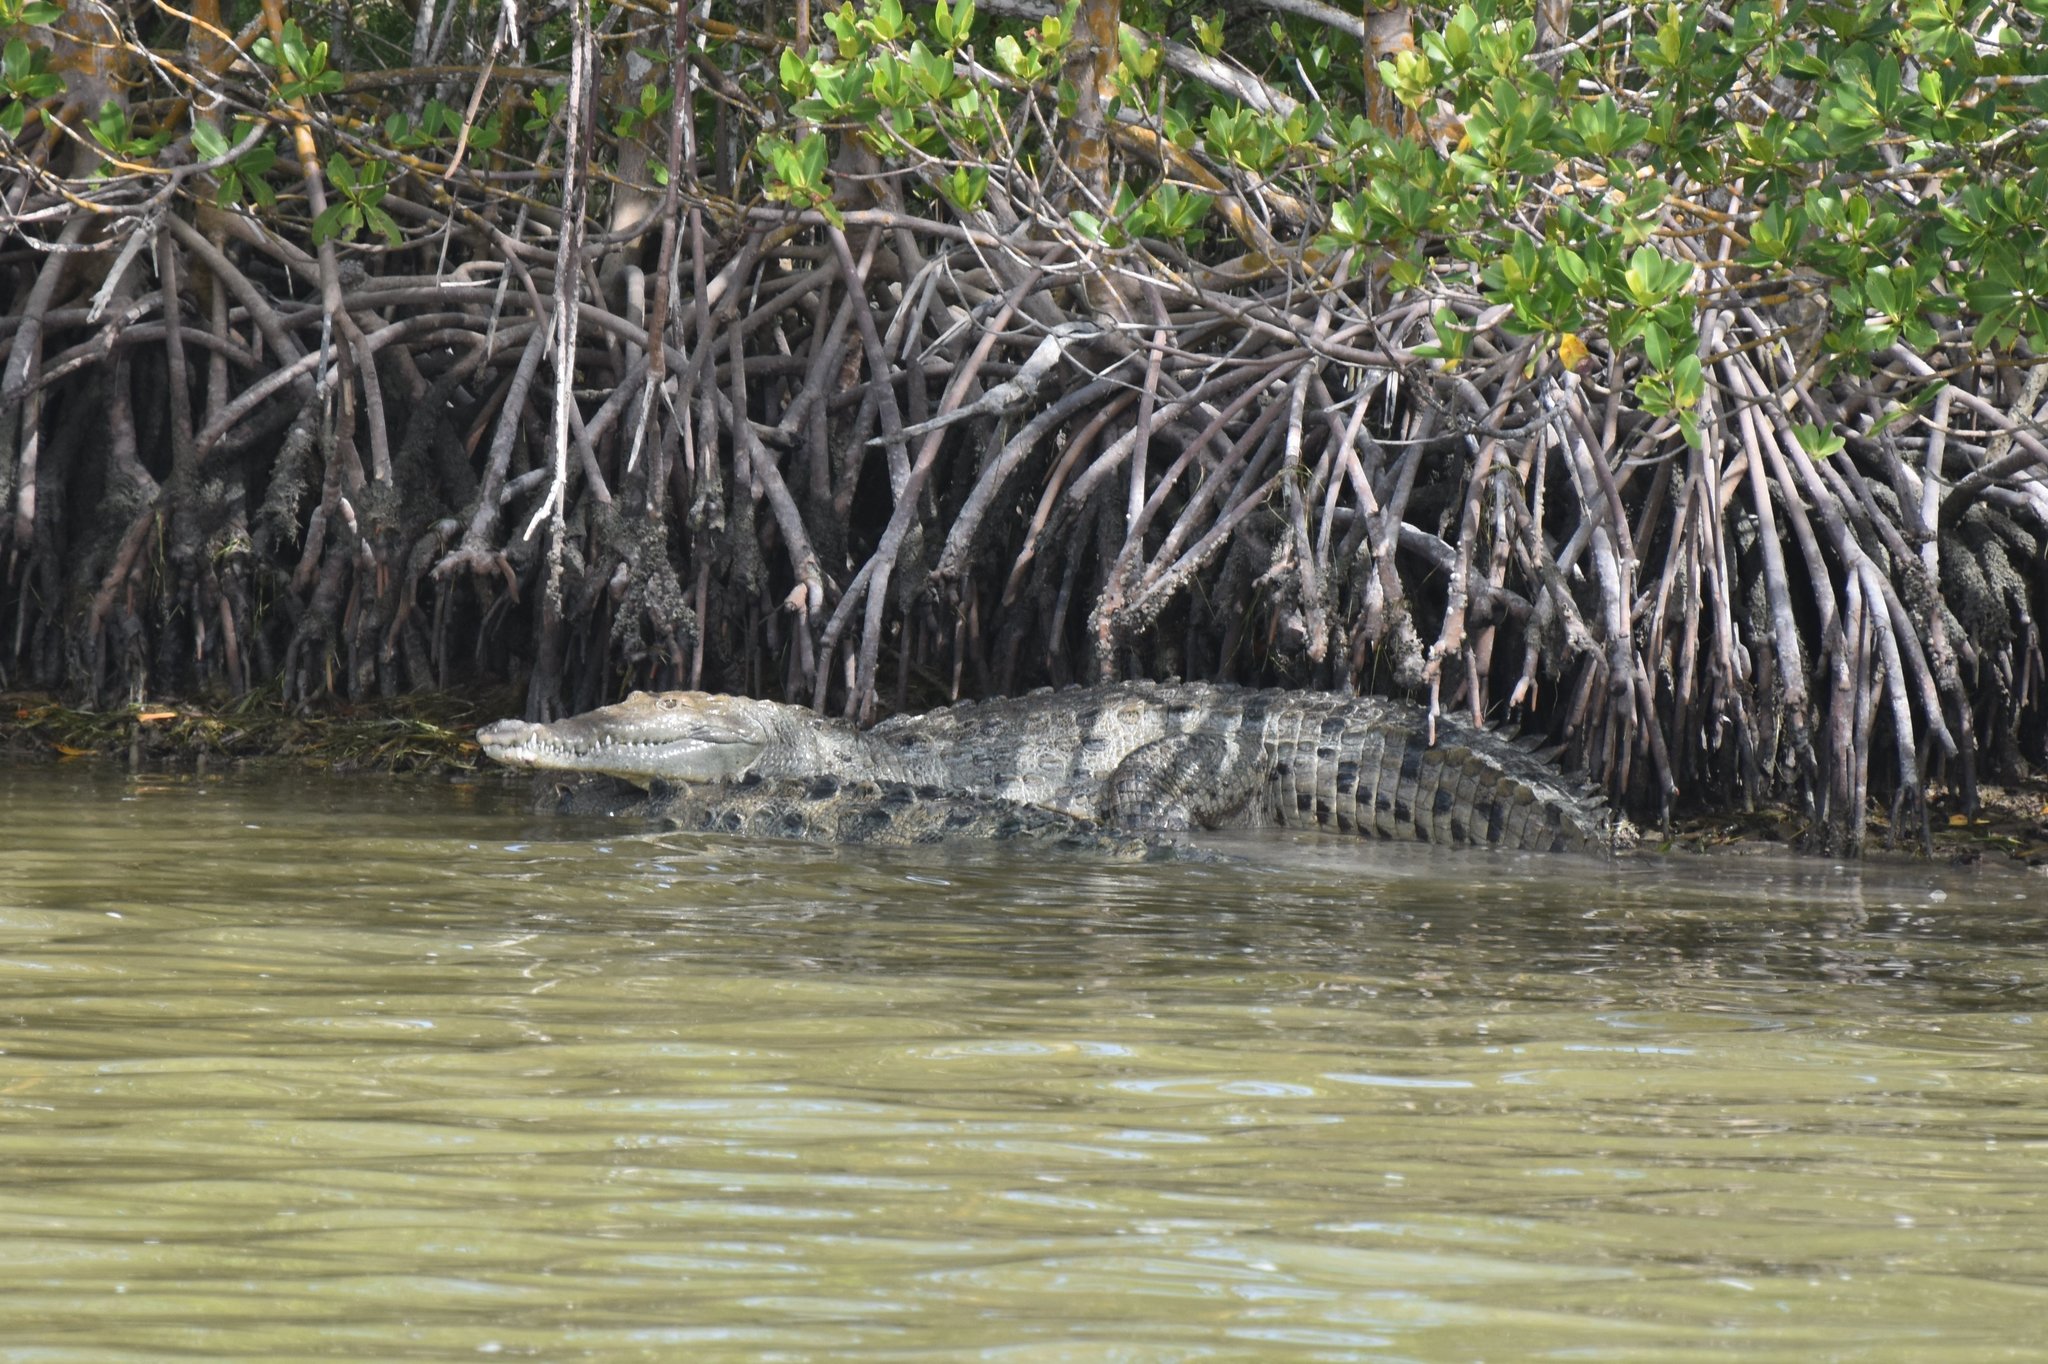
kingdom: Animalia
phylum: Chordata
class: Crocodylia
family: Crocodylidae
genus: Crocodylus
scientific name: Crocodylus acutus
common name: American crocodile
